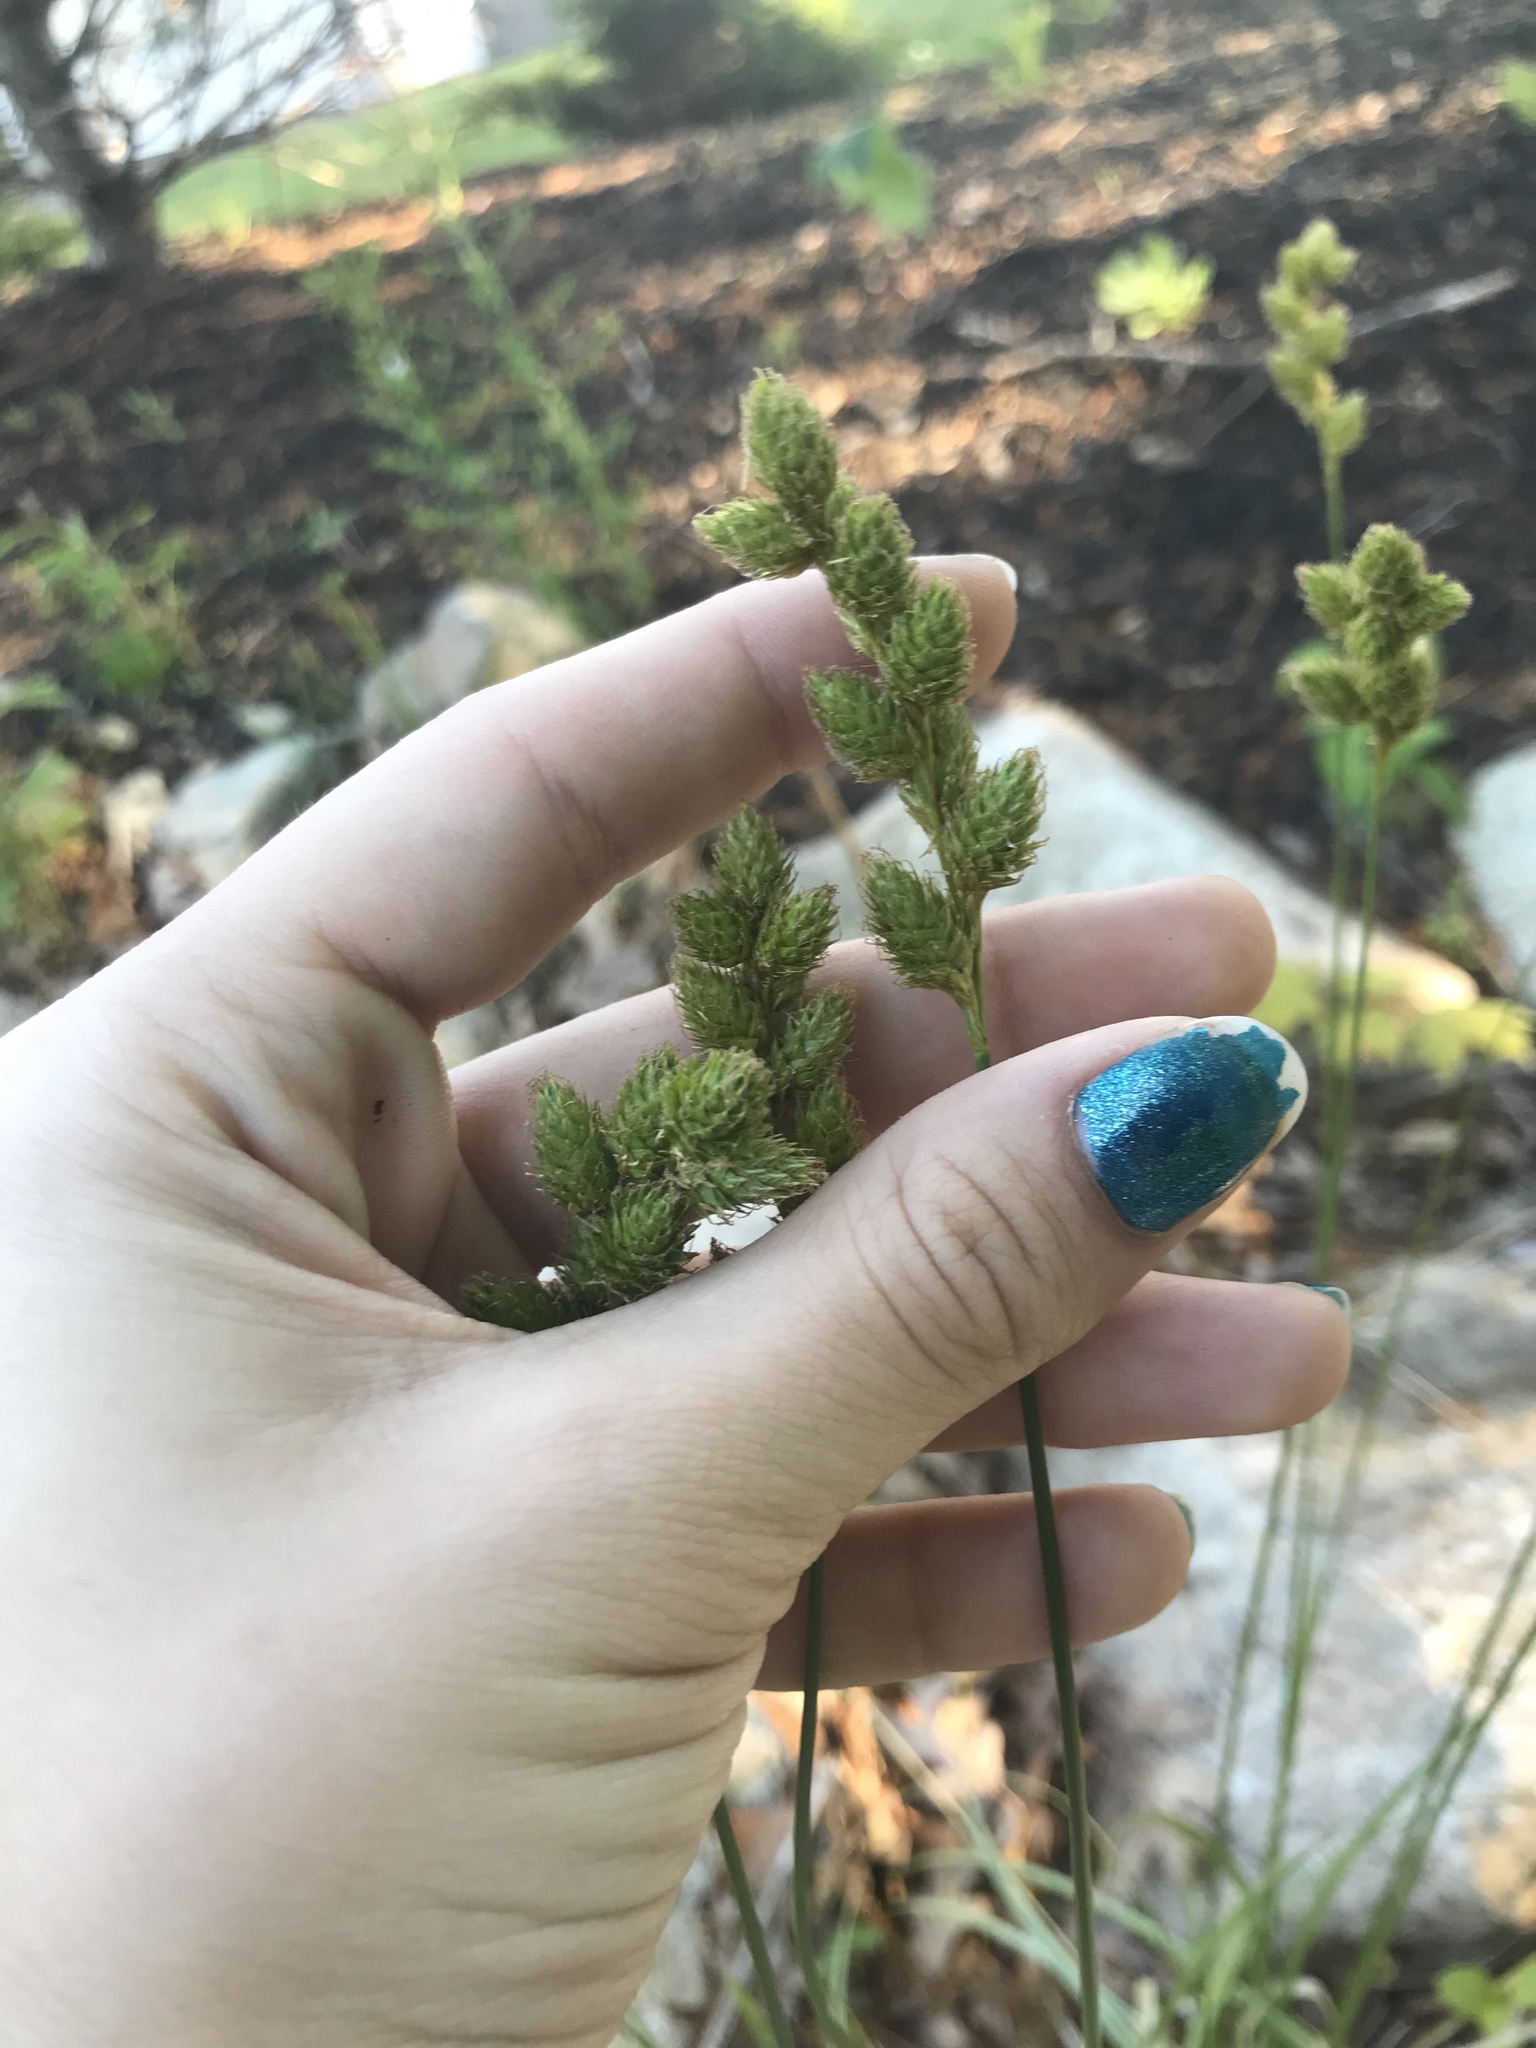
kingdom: Plantae
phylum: Tracheophyta
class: Liliopsida
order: Poales
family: Cyperaceae
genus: Carex
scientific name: Carex merritt-fernaldii
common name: Fernald's oval sedge
